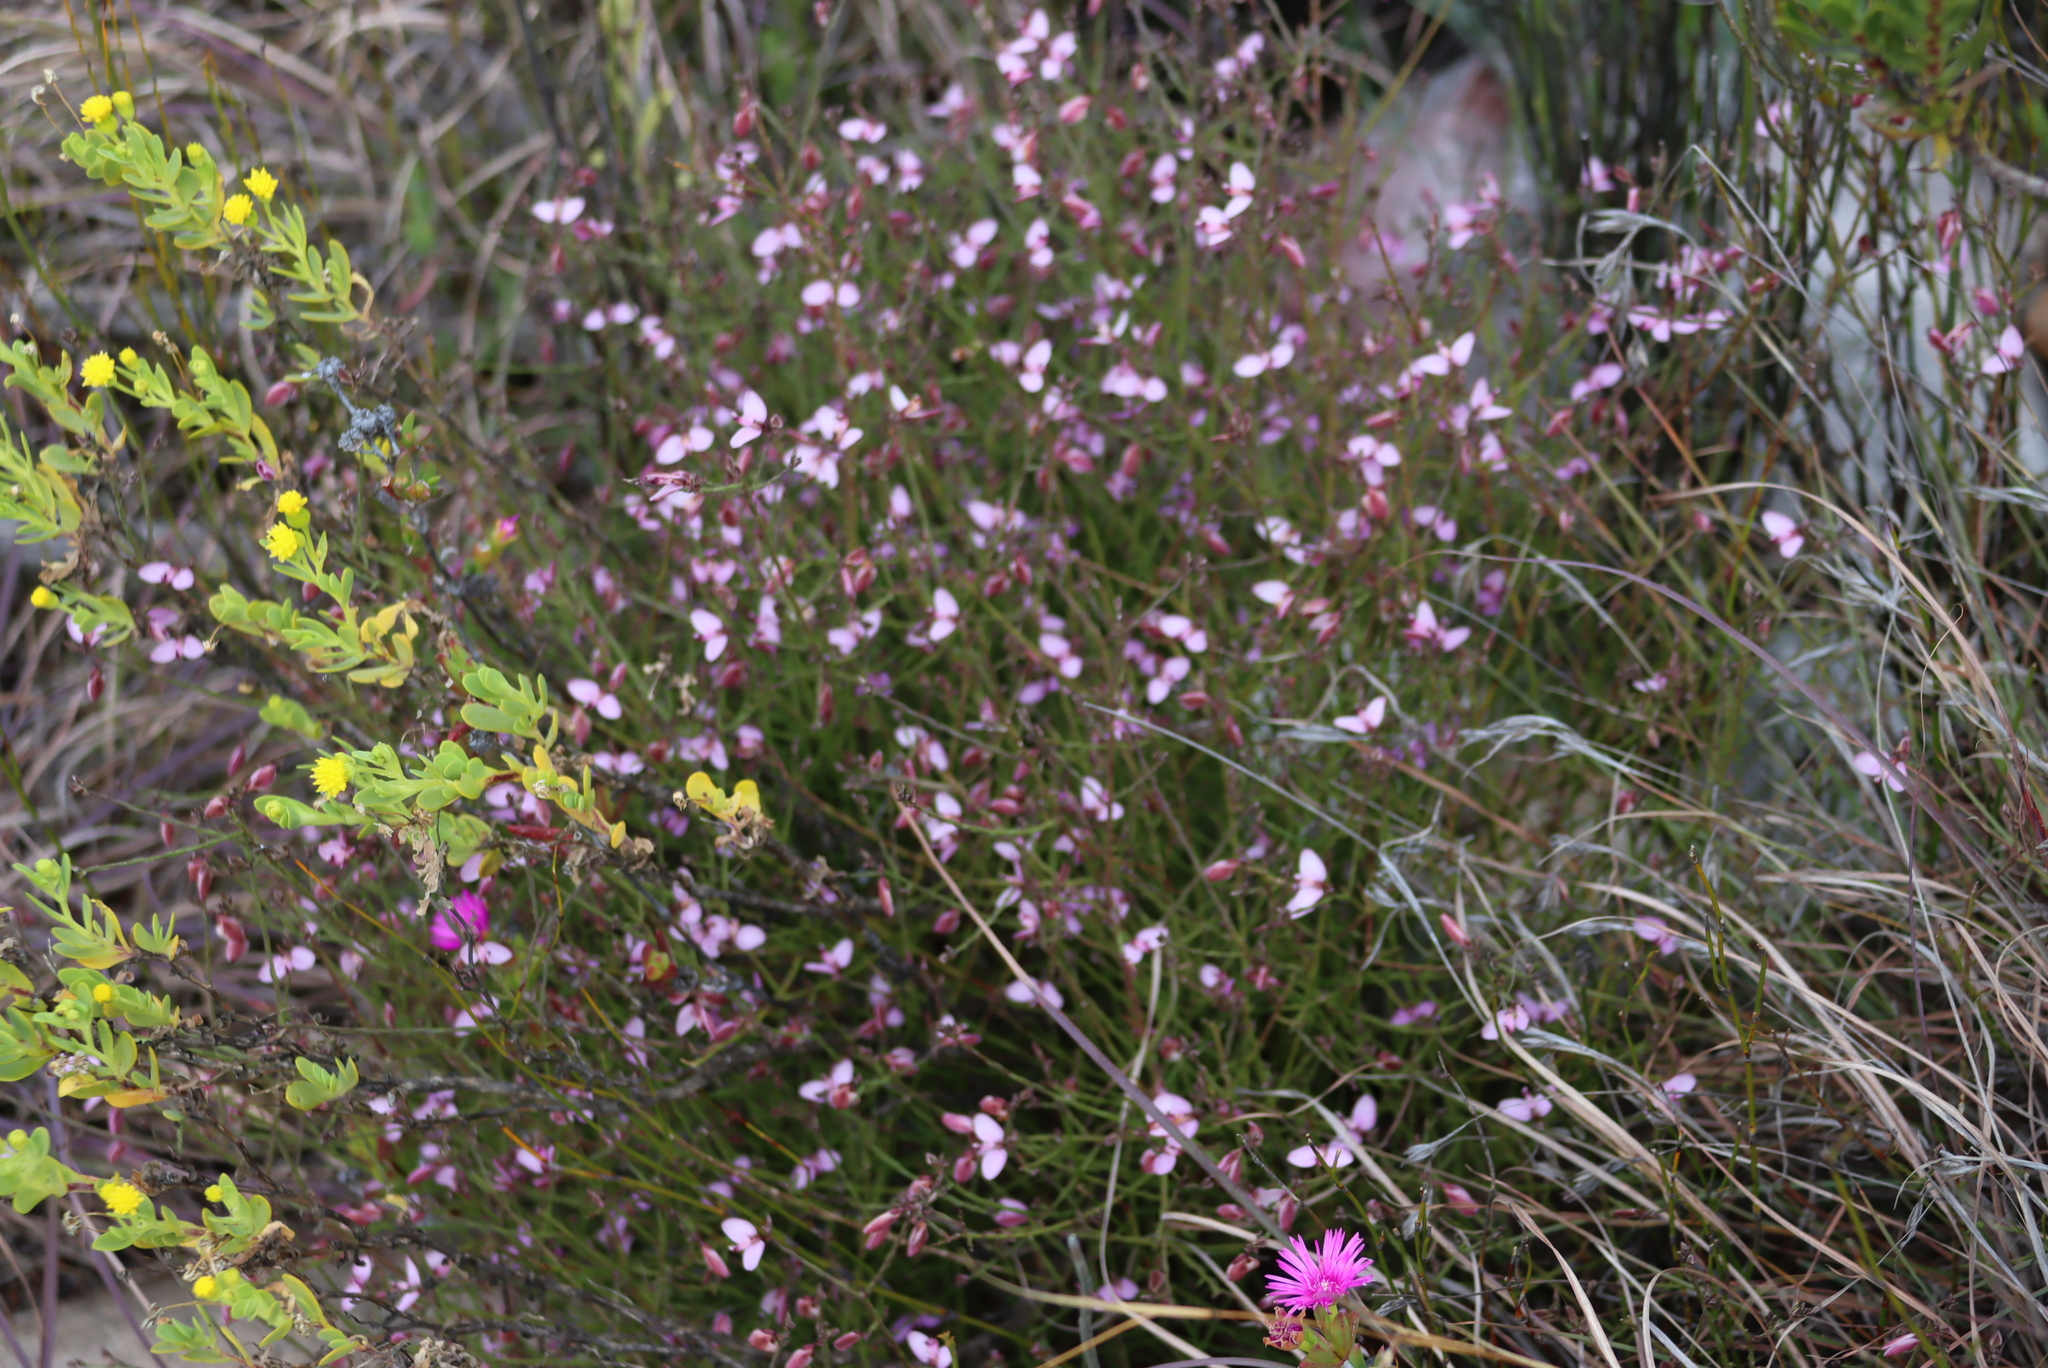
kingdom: Plantae
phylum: Tracheophyta
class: Magnoliopsida
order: Fabales
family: Polygalaceae
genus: Polygala
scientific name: Polygala microlopha
